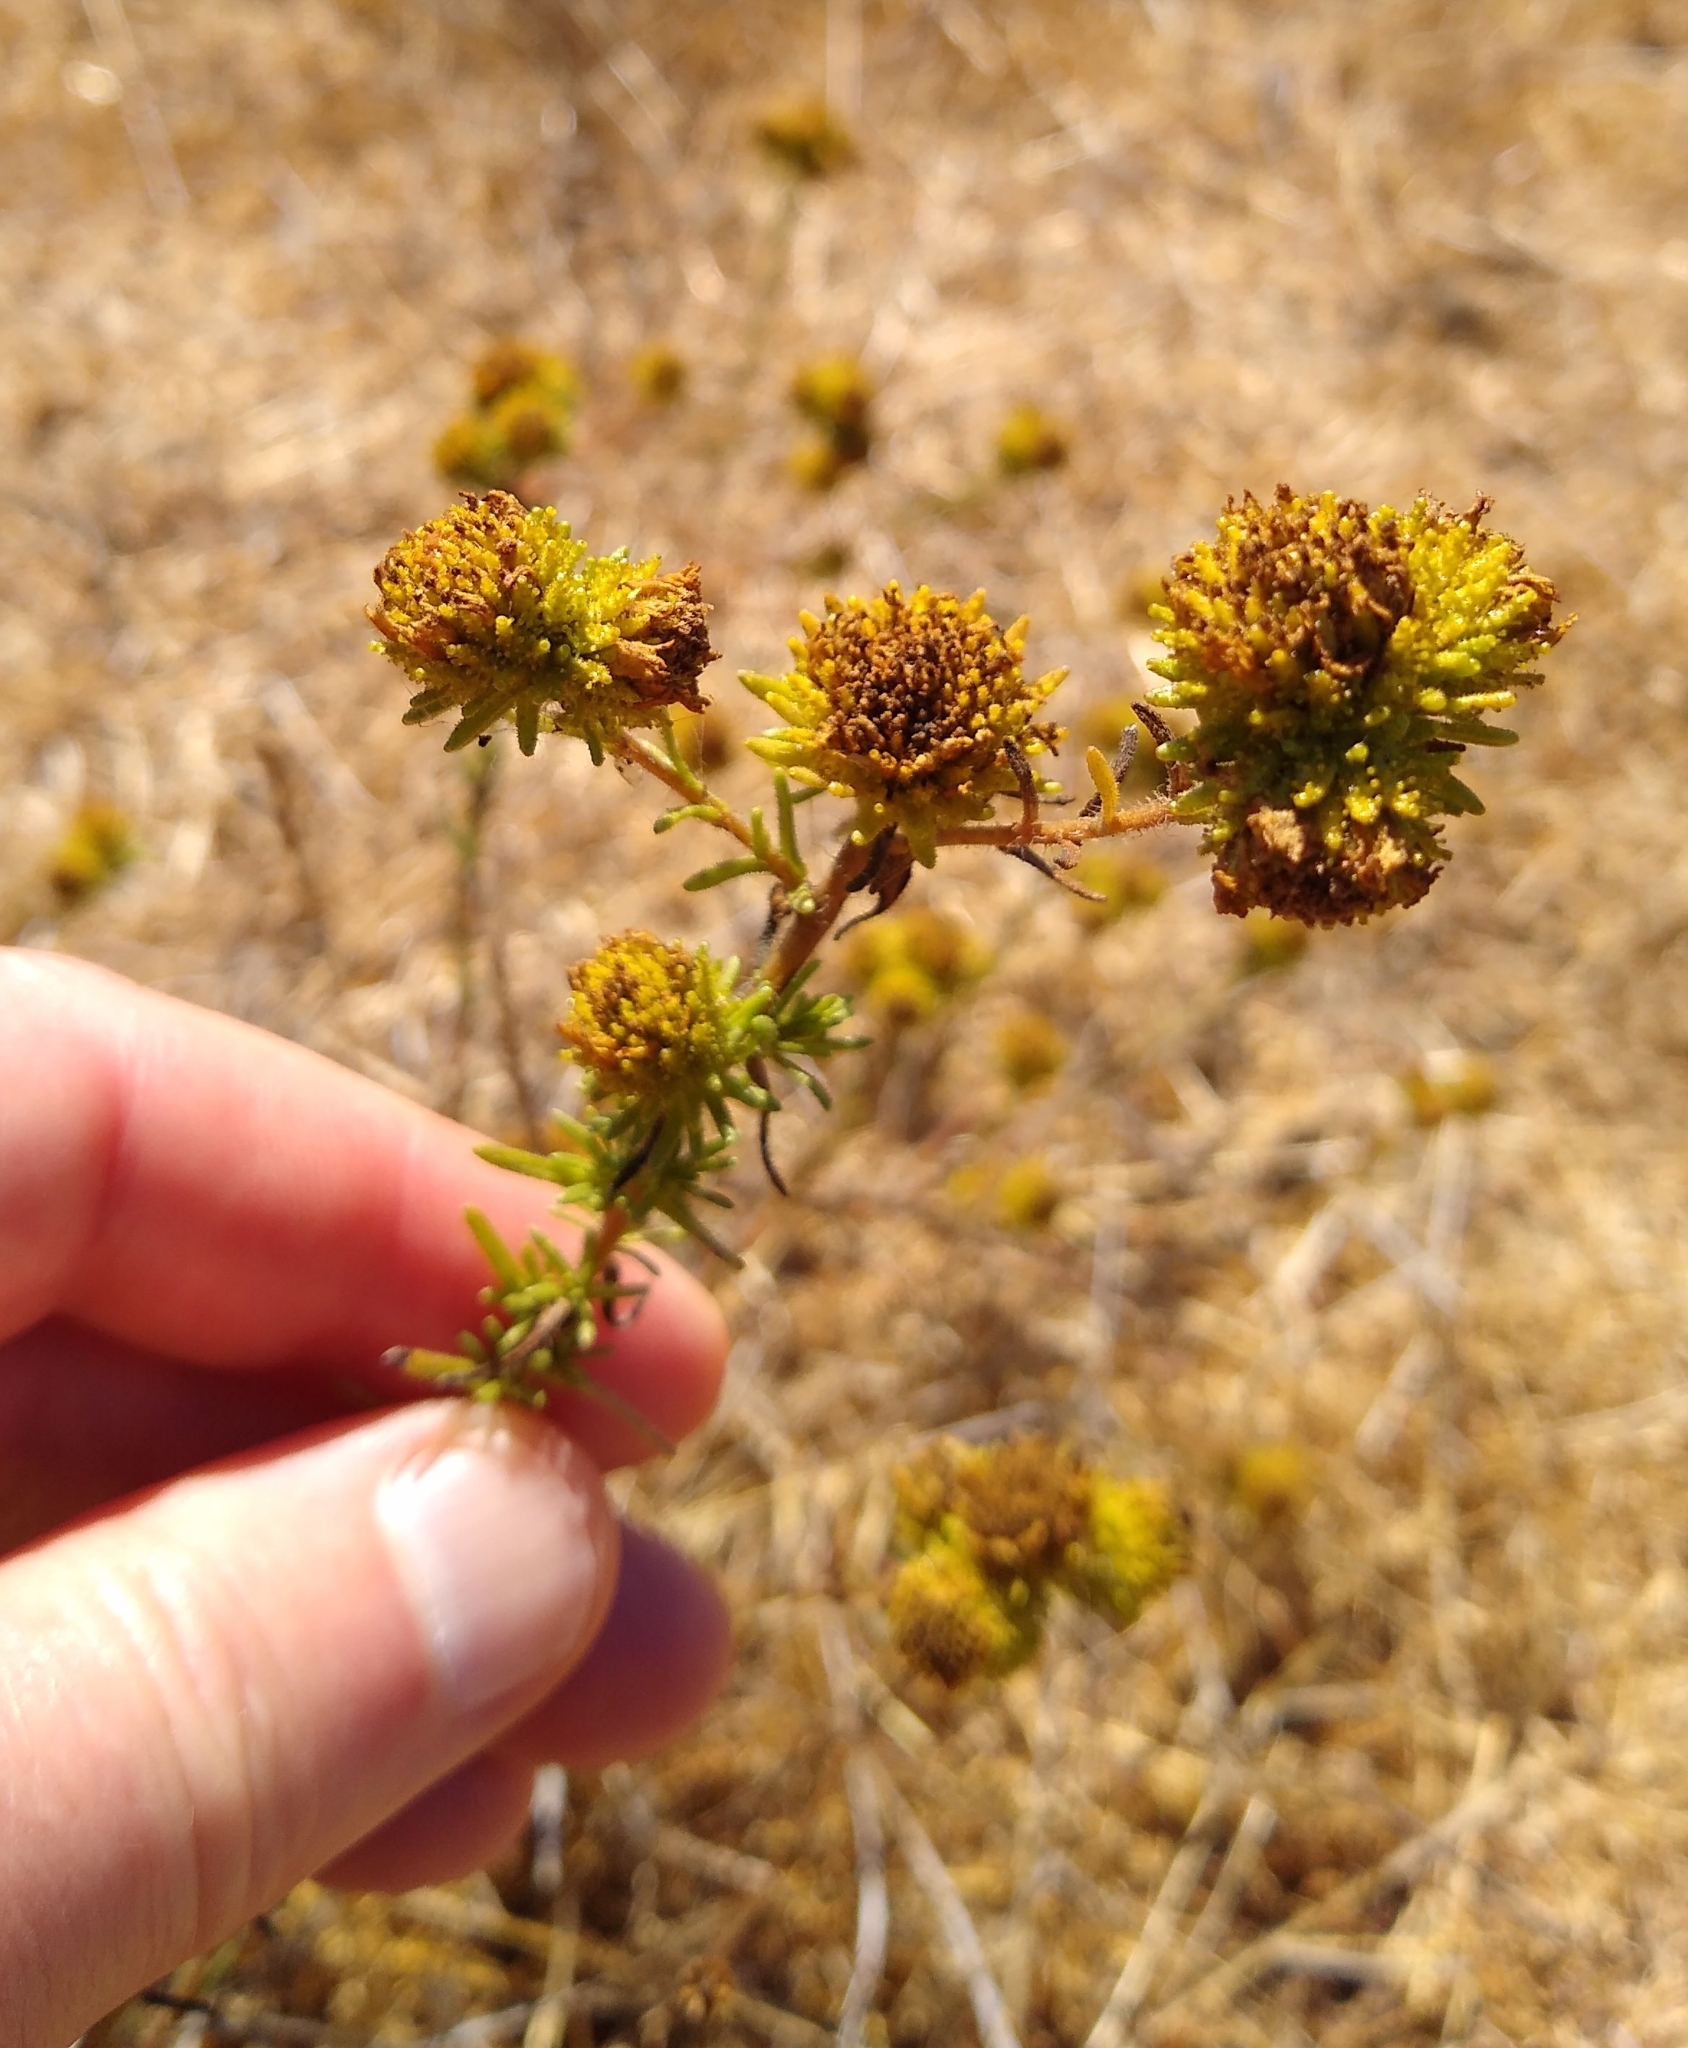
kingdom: Plantae
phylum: Tracheophyta
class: Magnoliopsida
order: Asterales
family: Asteraceae
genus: Holocarpha
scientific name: Holocarpha macradenia
